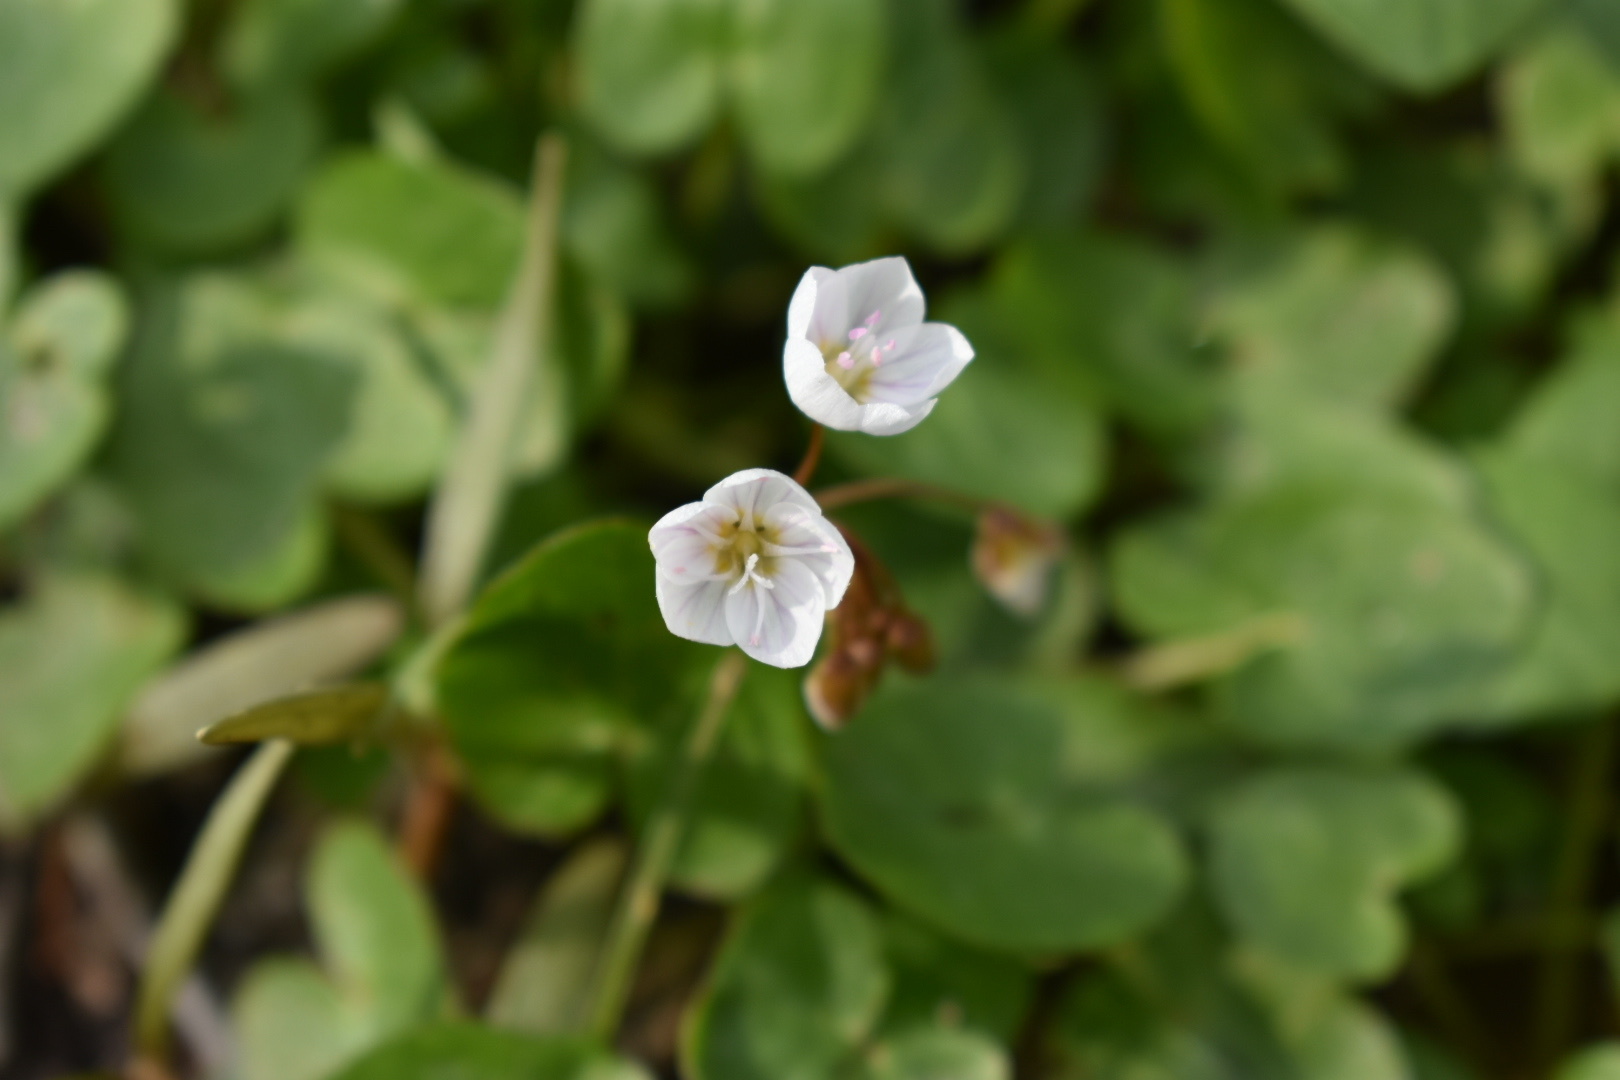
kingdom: Plantae
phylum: Tracheophyta
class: Magnoliopsida
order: Caryophyllales
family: Montiaceae
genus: Claytonia
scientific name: Claytonia virginica
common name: Virginia springbeauty
